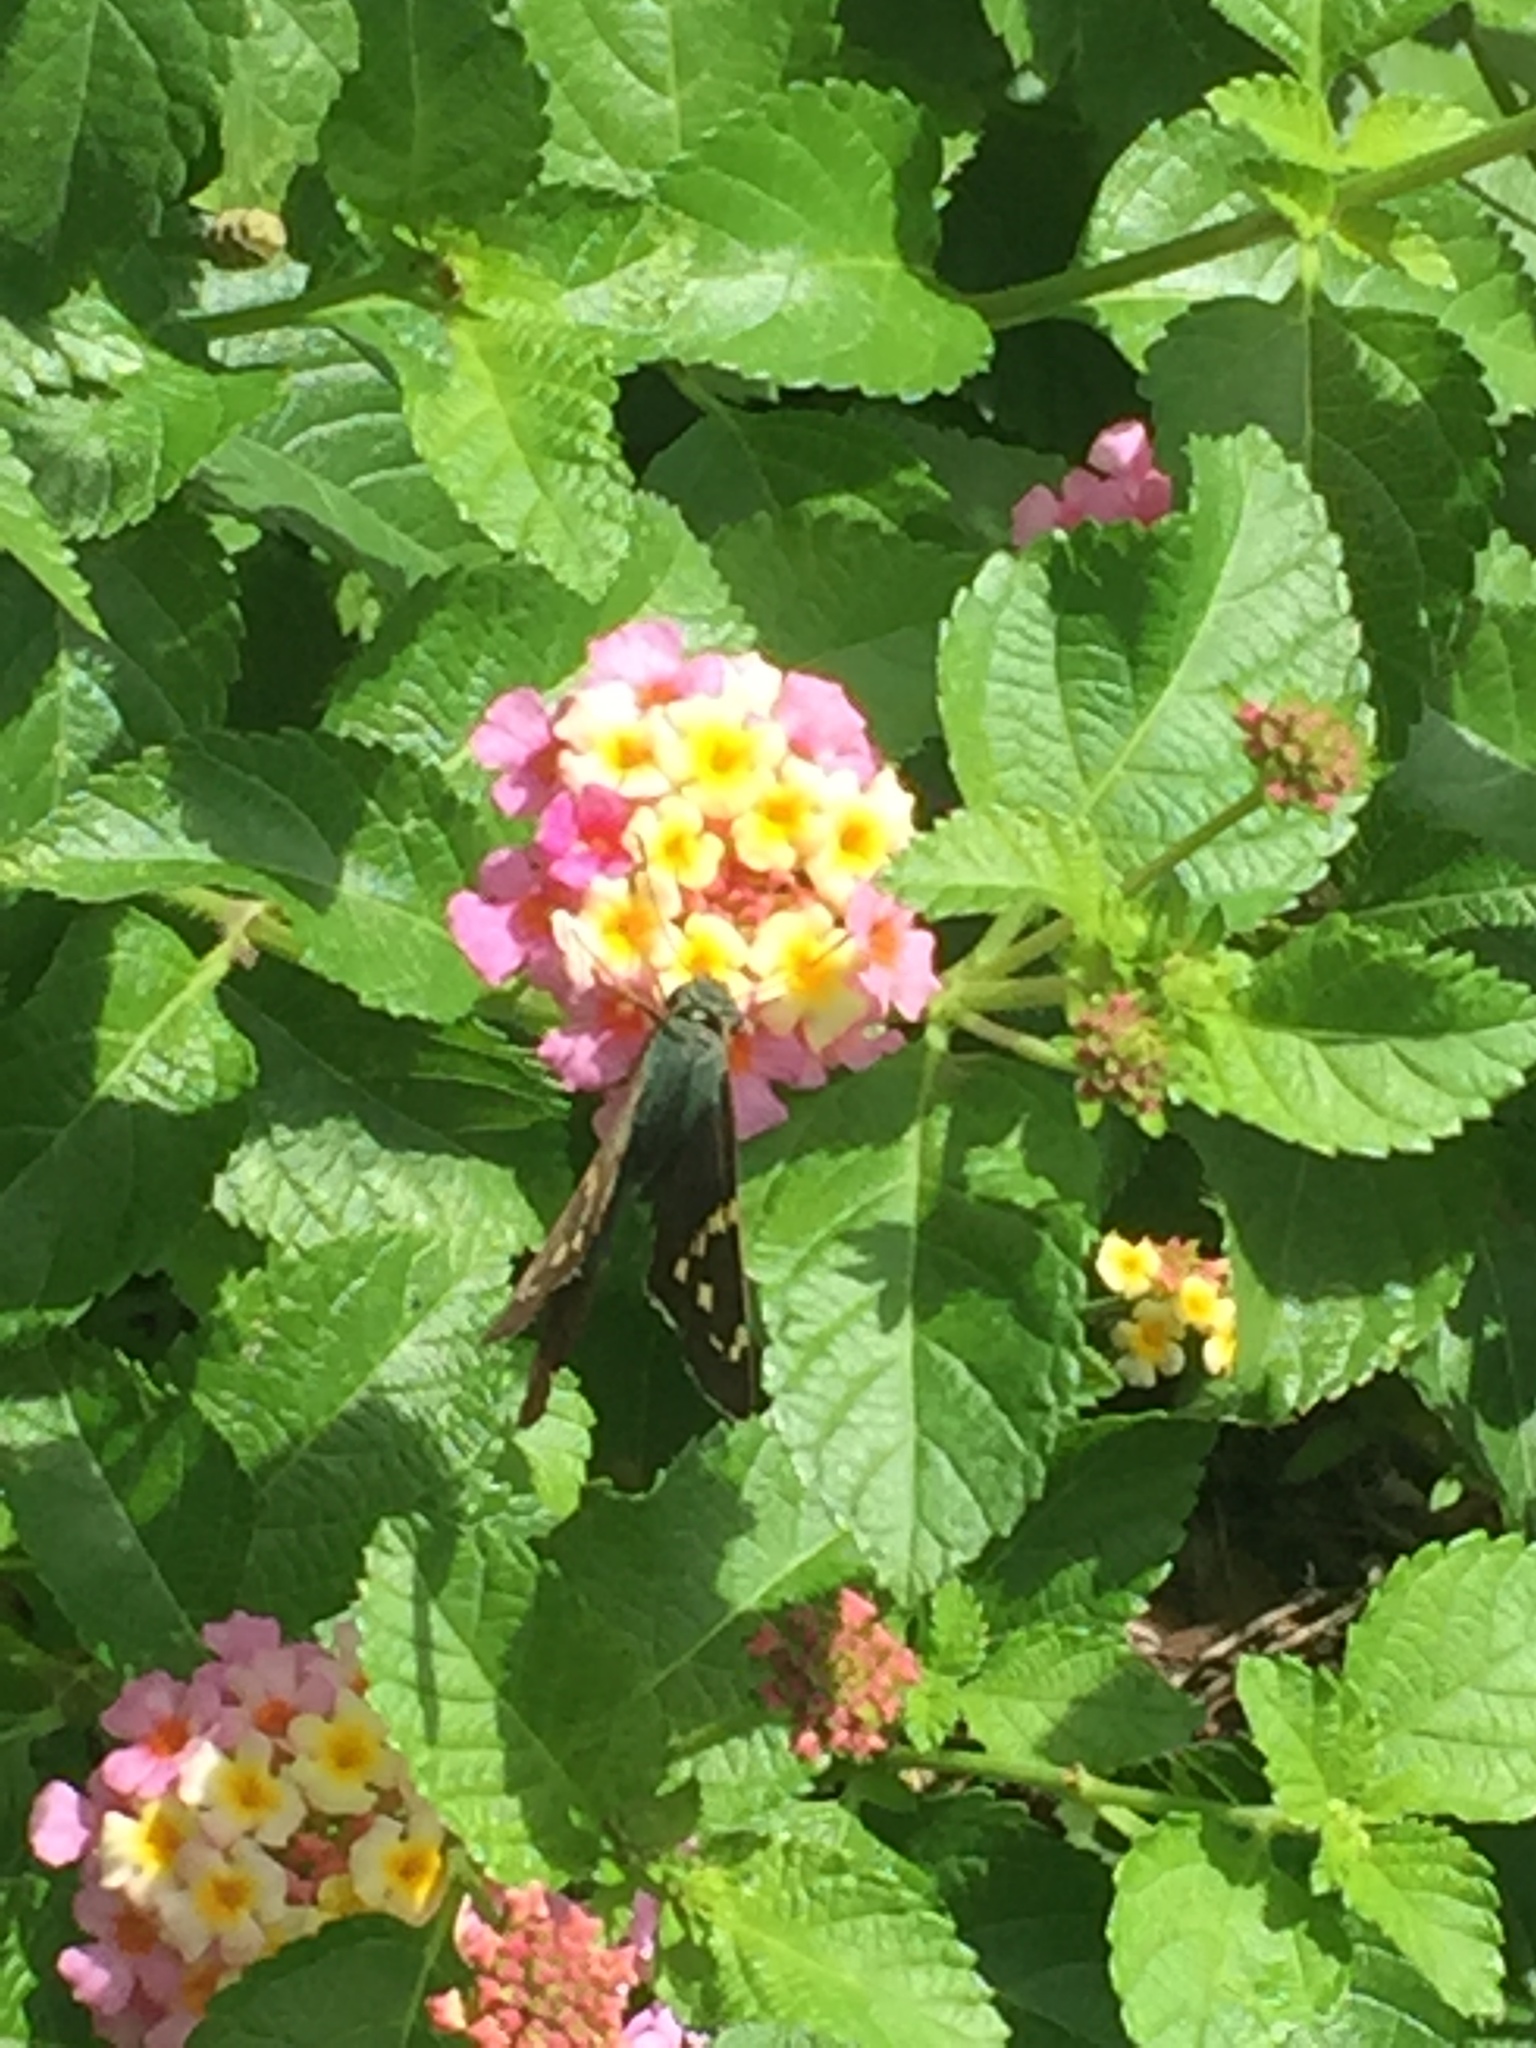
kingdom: Animalia
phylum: Arthropoda
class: Insecta
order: Lepidoptera
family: Hesperiidae
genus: Urbanus
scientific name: Urbanus proteus
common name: Long-tailed skipper
